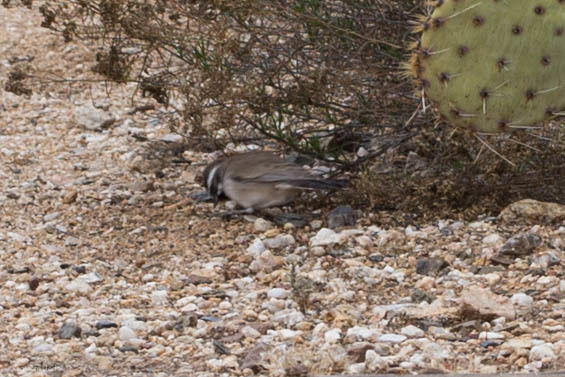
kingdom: Animalia
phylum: Chordata
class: Aves
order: Passeriformes
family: Passerellidae
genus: Amphispiza
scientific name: Amphispiza bilineata
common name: Black-throated sparrow
